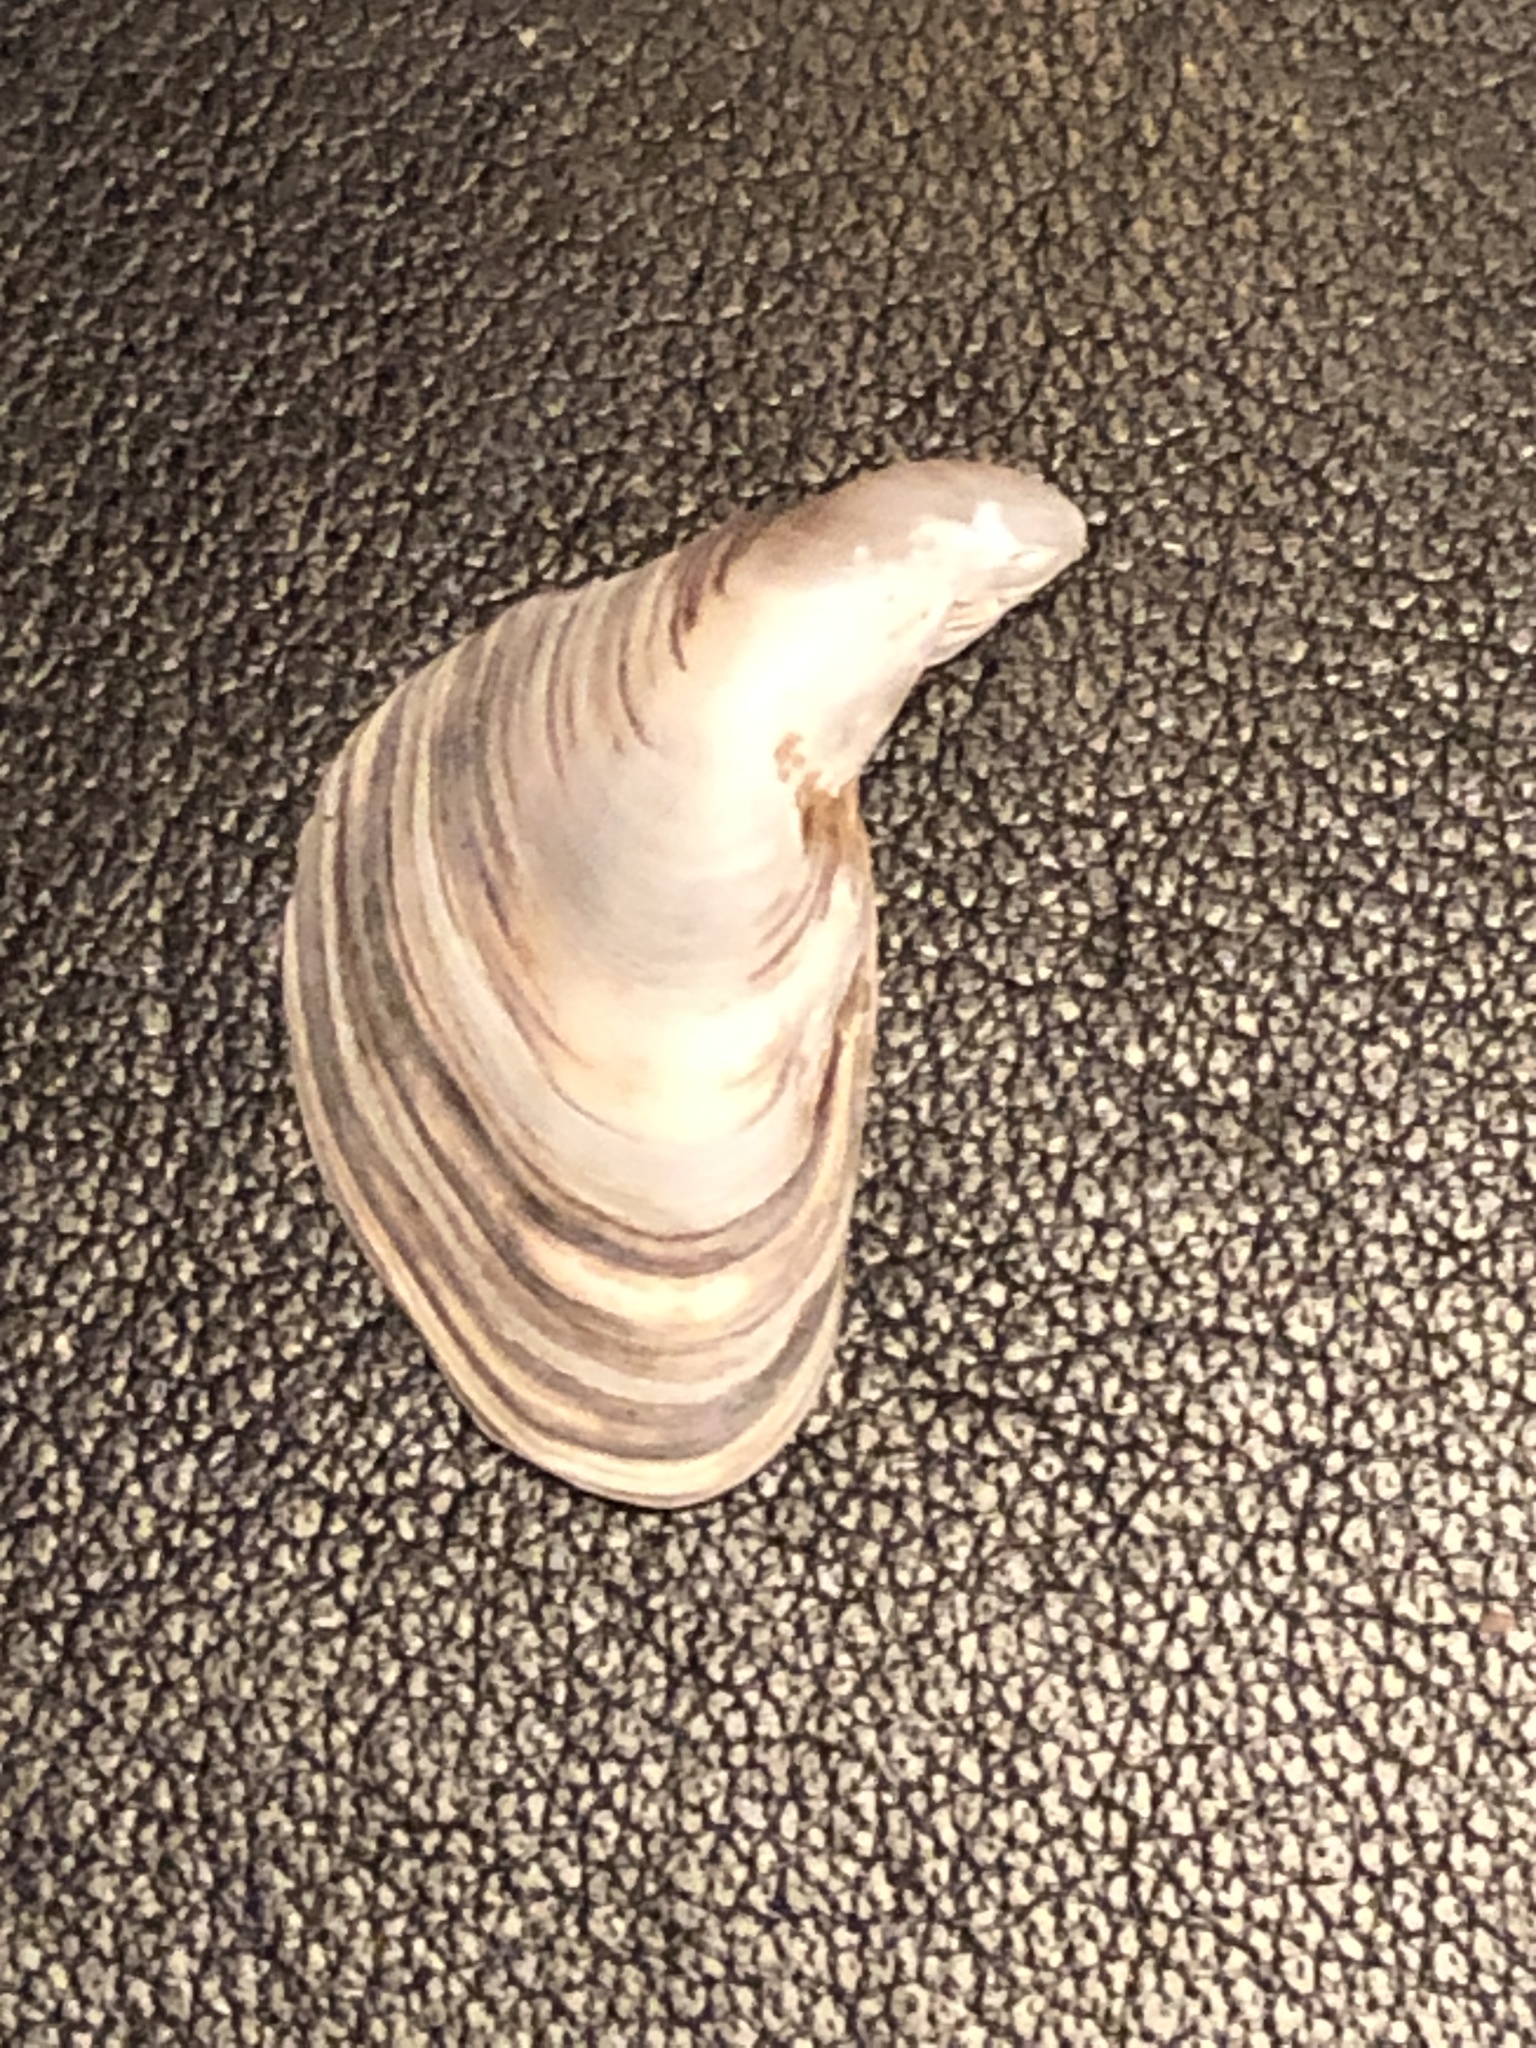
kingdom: Animalia
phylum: Mollusca
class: Bivalvia
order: Myida
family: Dreissenidae
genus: Dreissena
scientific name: Dreissena bugensis
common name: Quagga mussel
